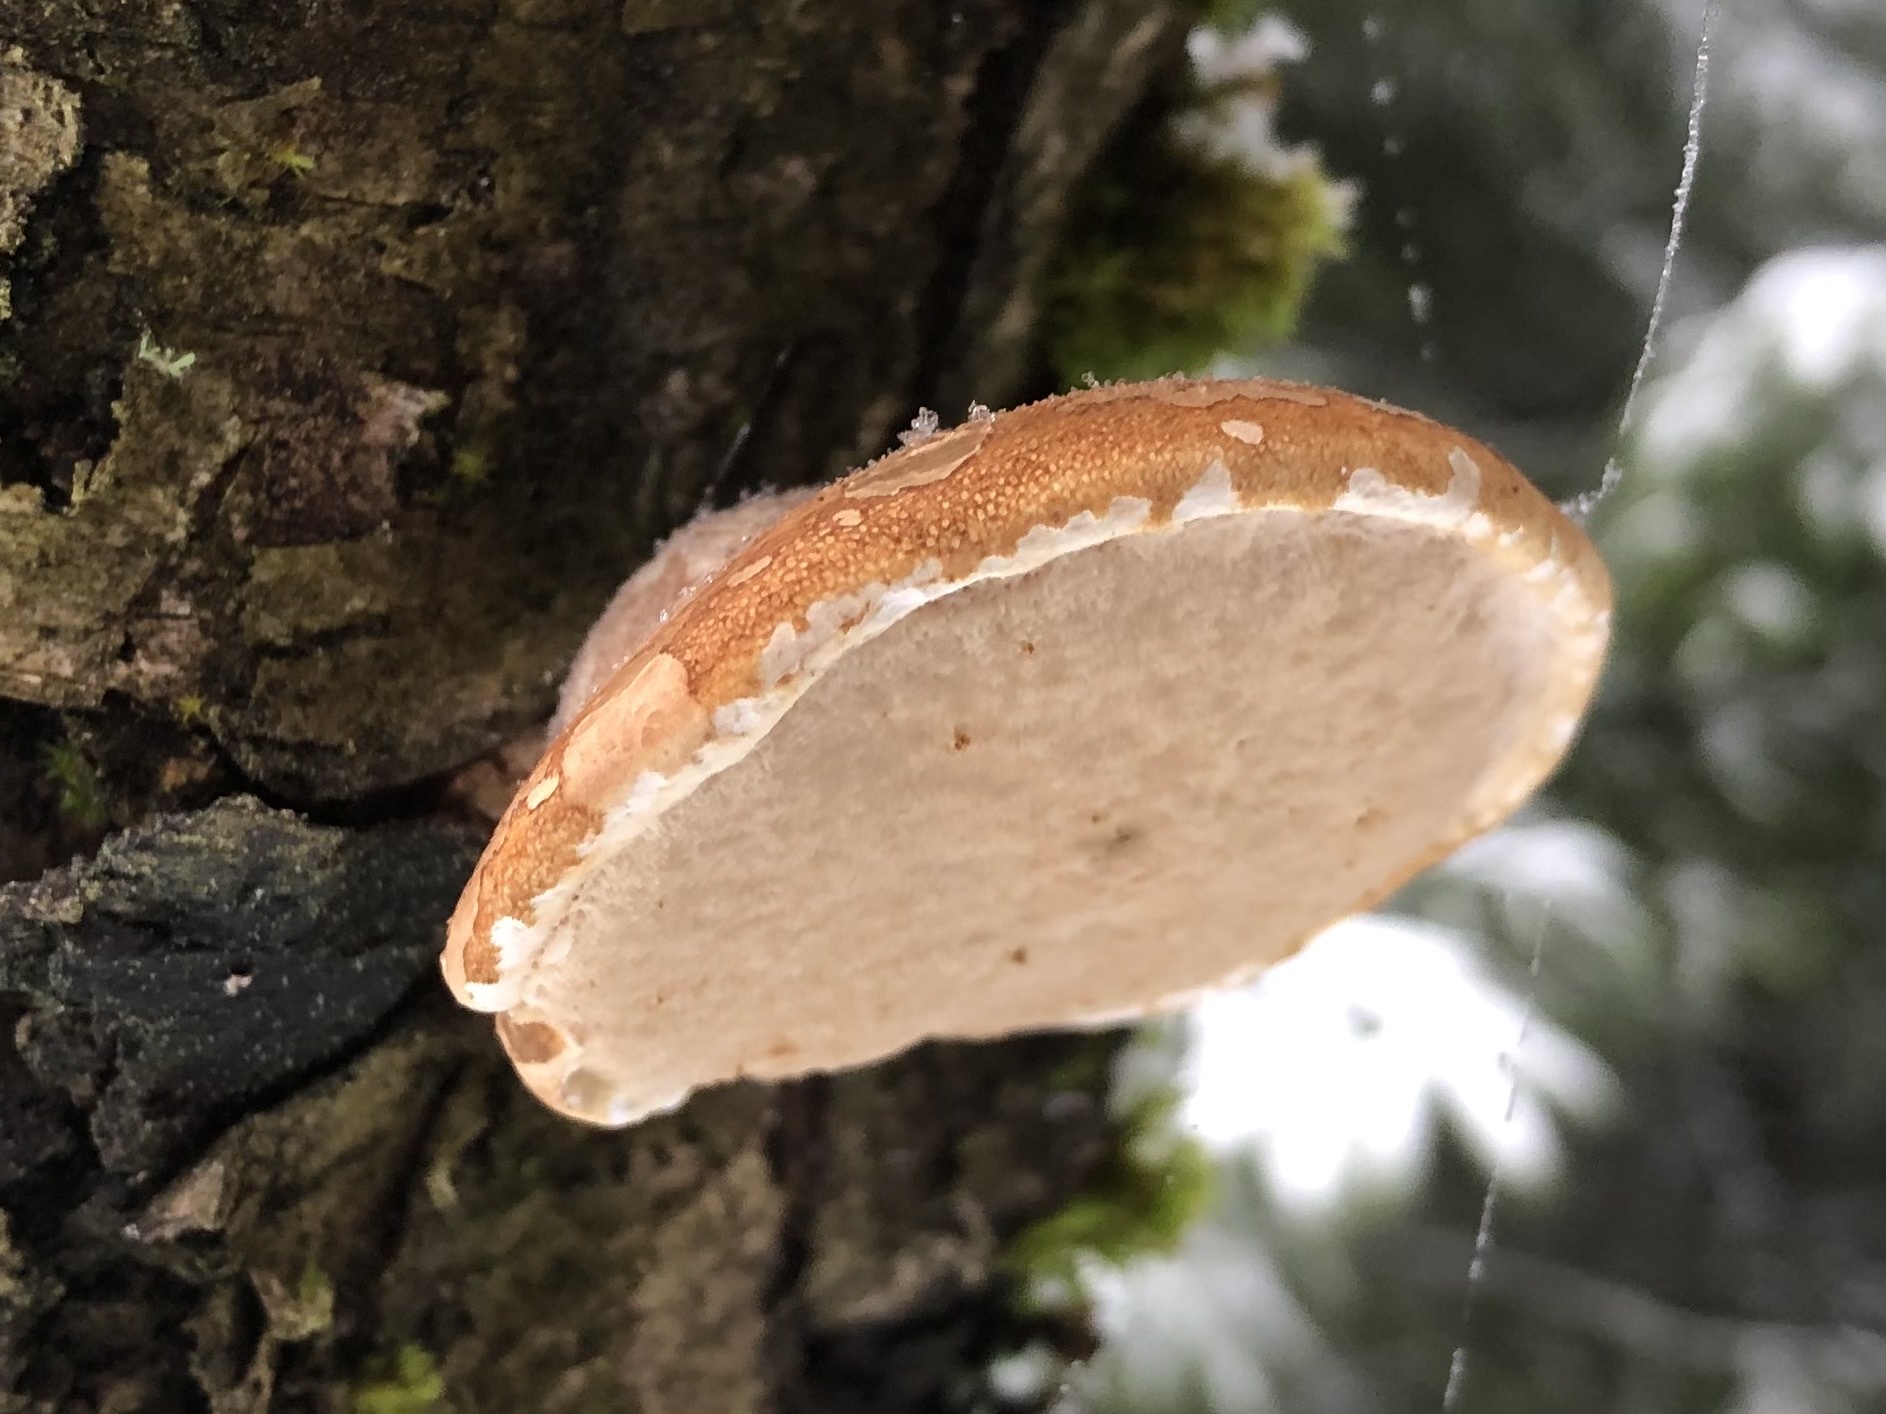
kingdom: Fungi
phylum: Basidiomycota
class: Agaricomycetes
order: Polyporales
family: Fomitopsidaceae
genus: Fomitopsis
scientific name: Fomitopsis betulina
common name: Birch polypore
